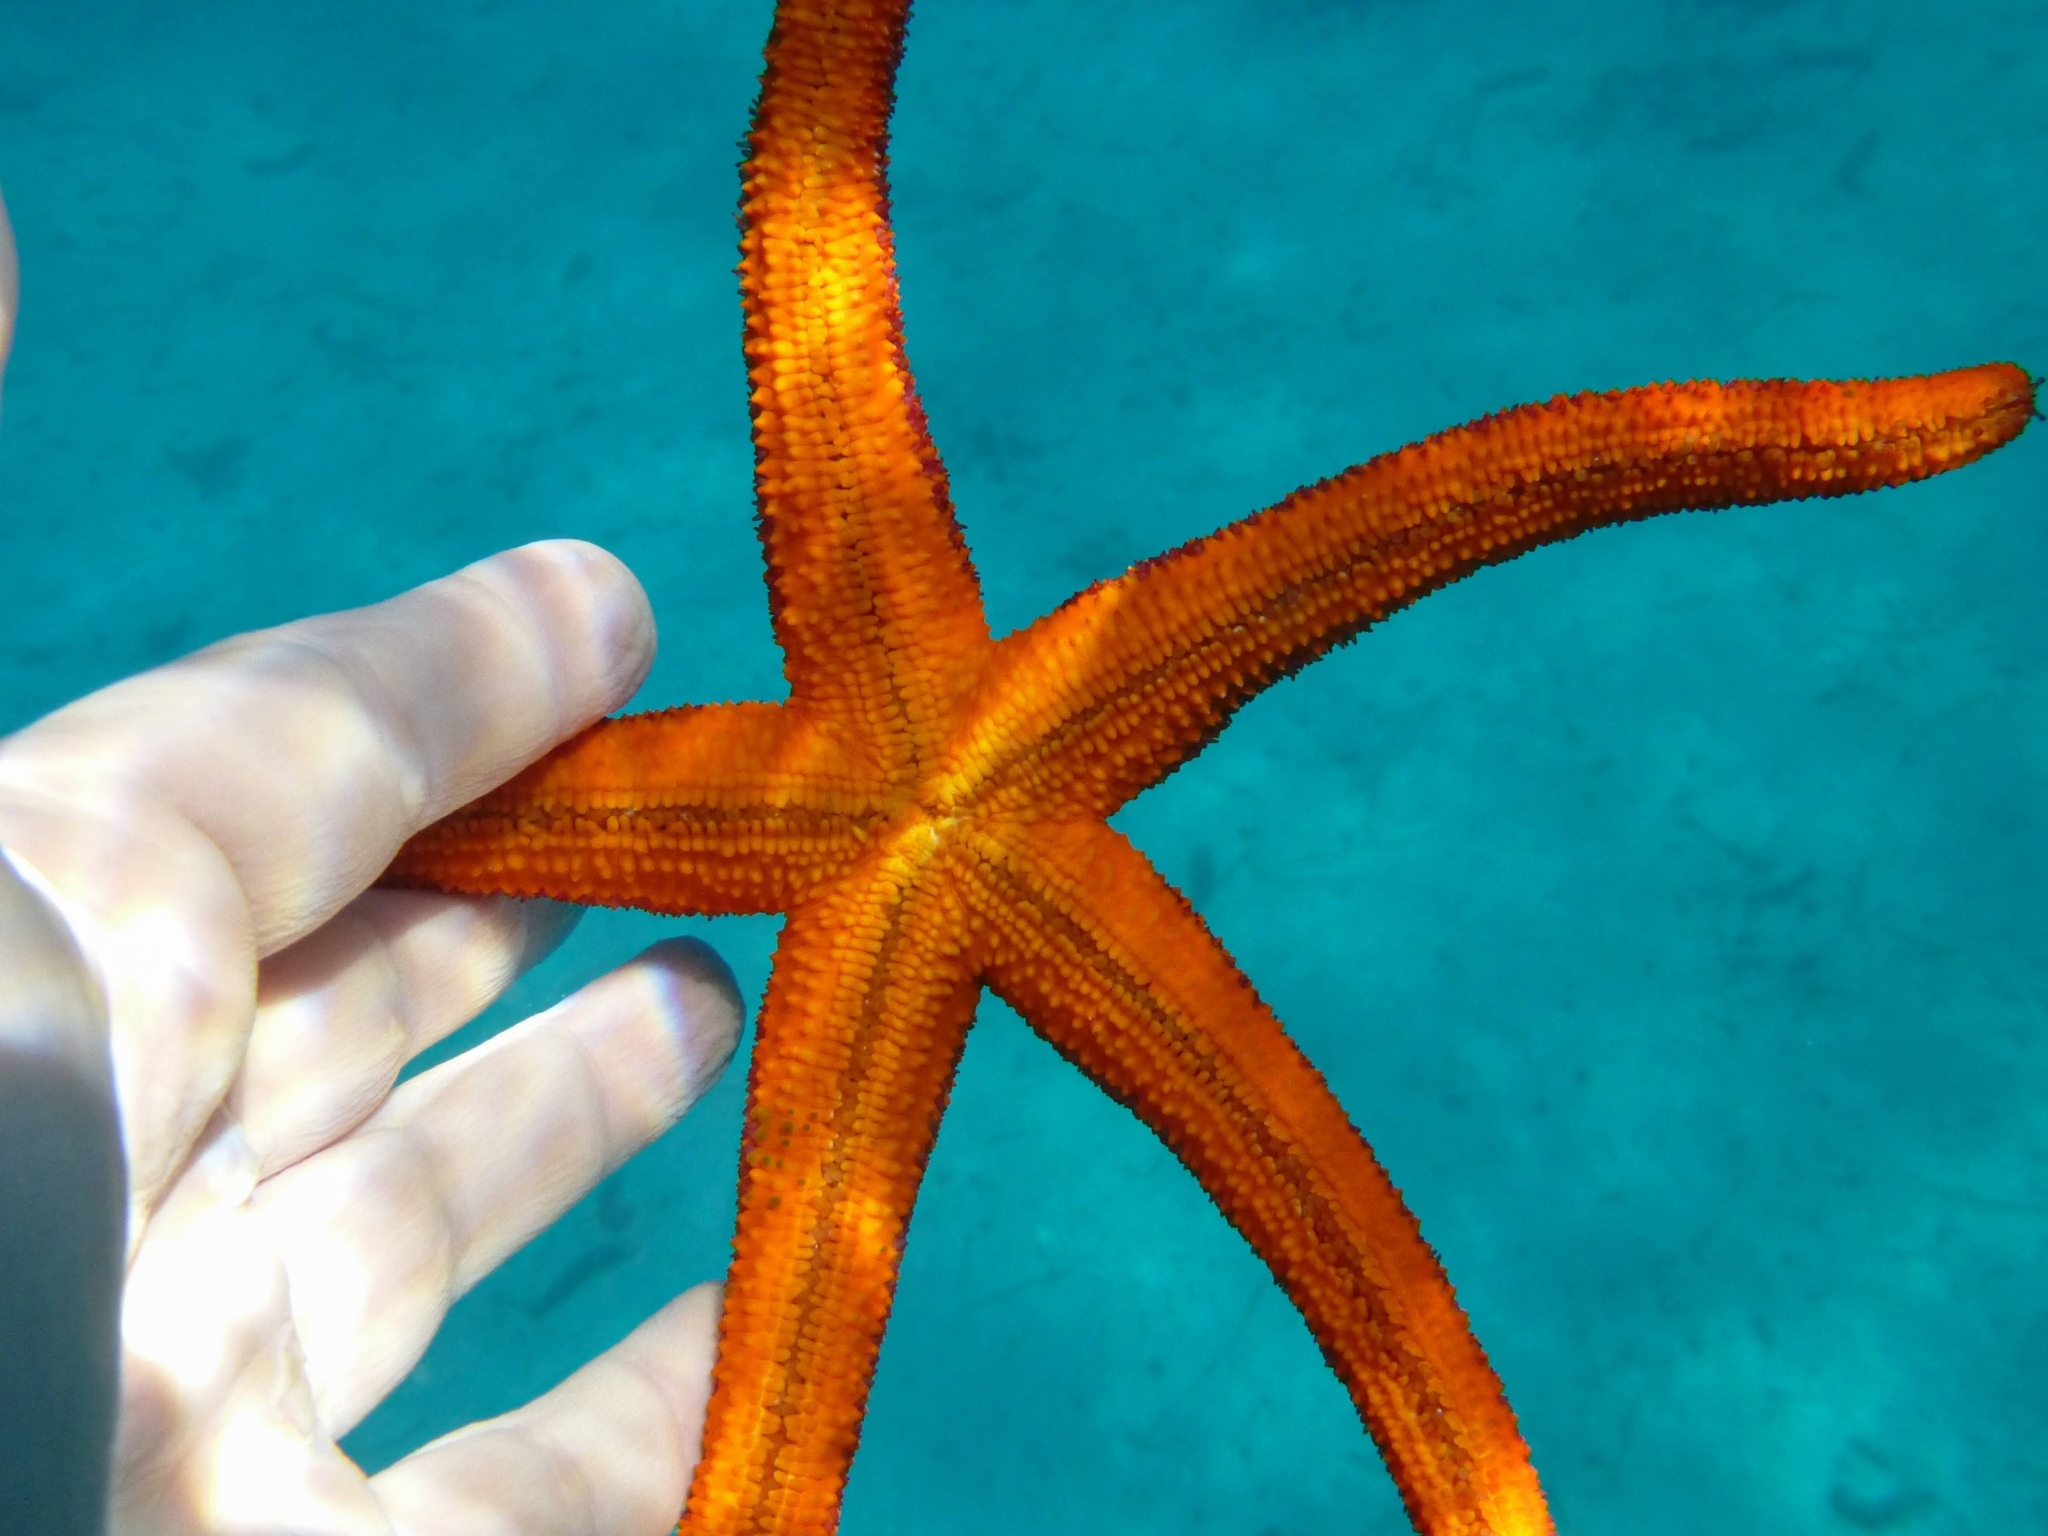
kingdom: Animalia
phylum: Echinodermata
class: Asteroidea
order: Spinulosida
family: Echinasteridae
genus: Echinaster
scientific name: Echinaster sepositus
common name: Red starfish
